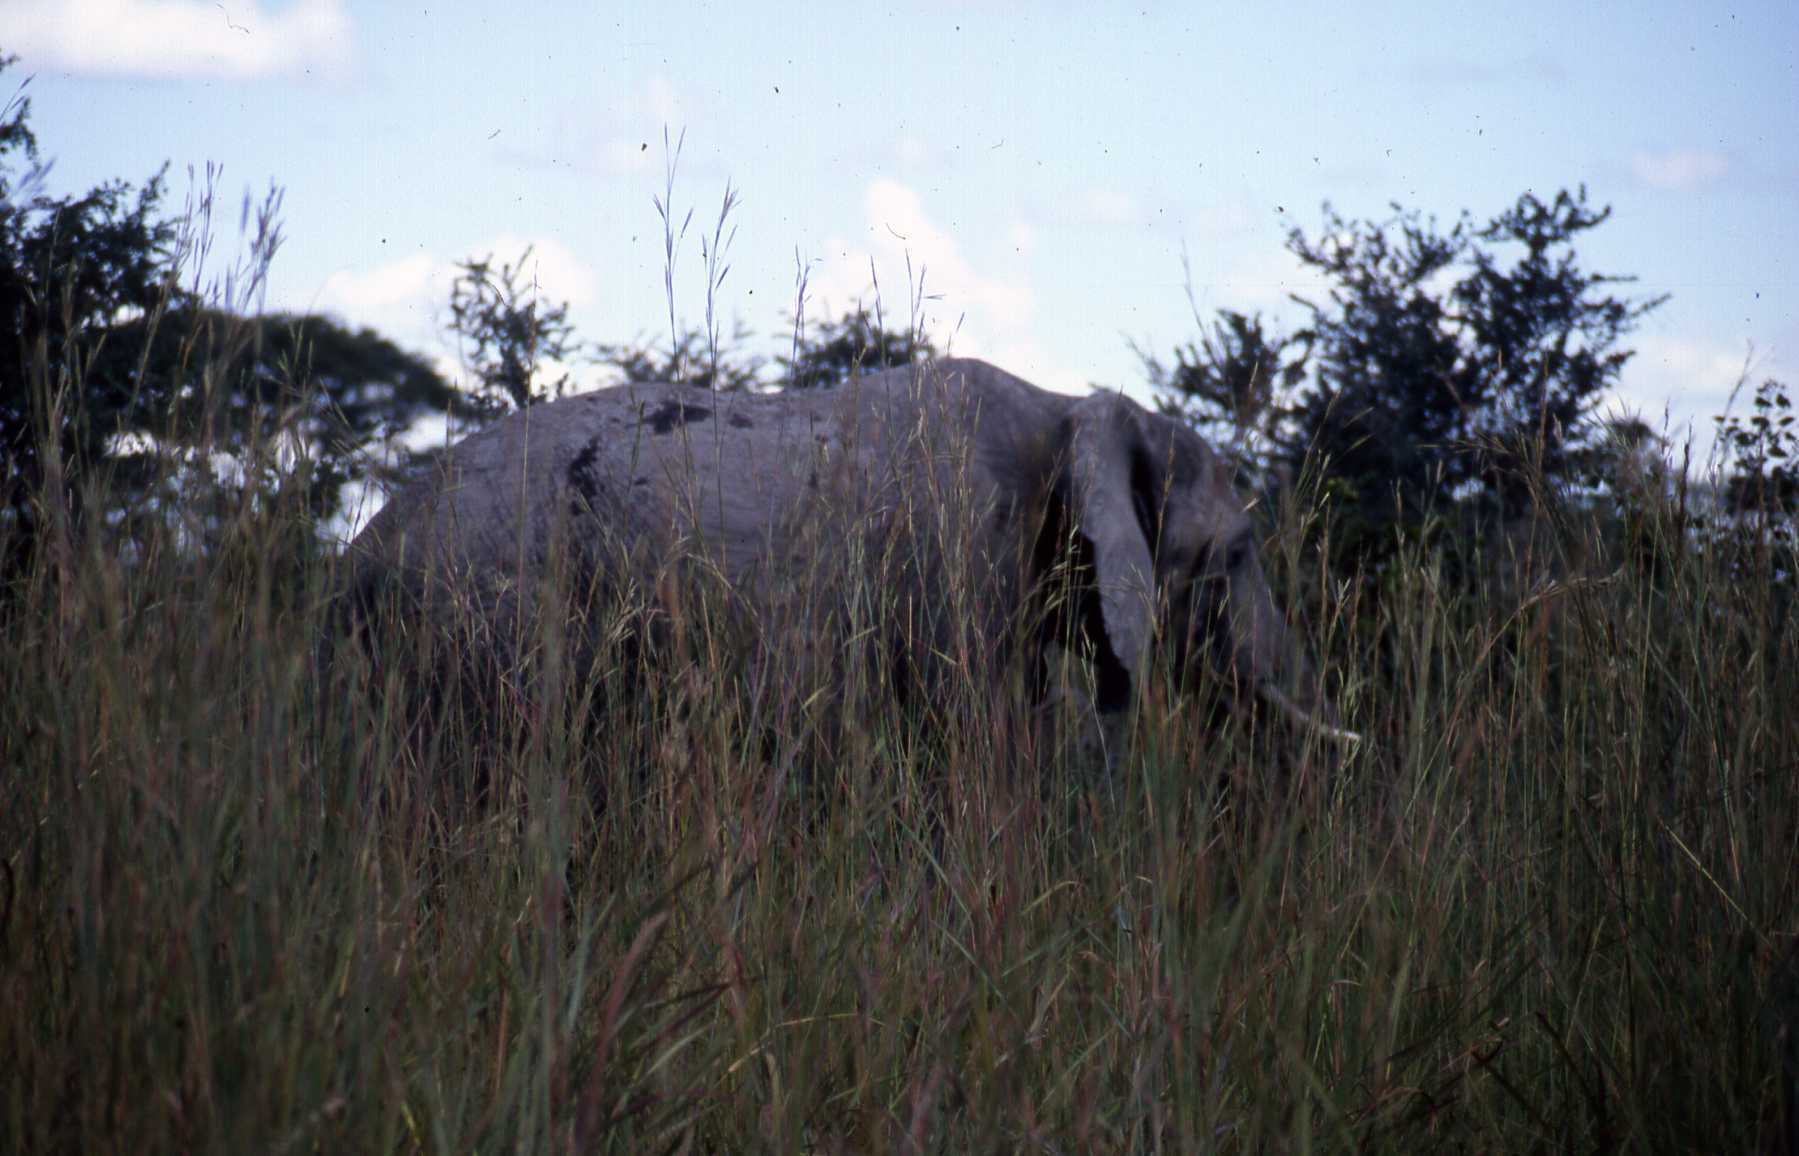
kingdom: Animalia
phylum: Chordata
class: Mammalia
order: Proboscidea
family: Elephantidae
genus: Loxodonta
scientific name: Loxodonta africana
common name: African elephant
